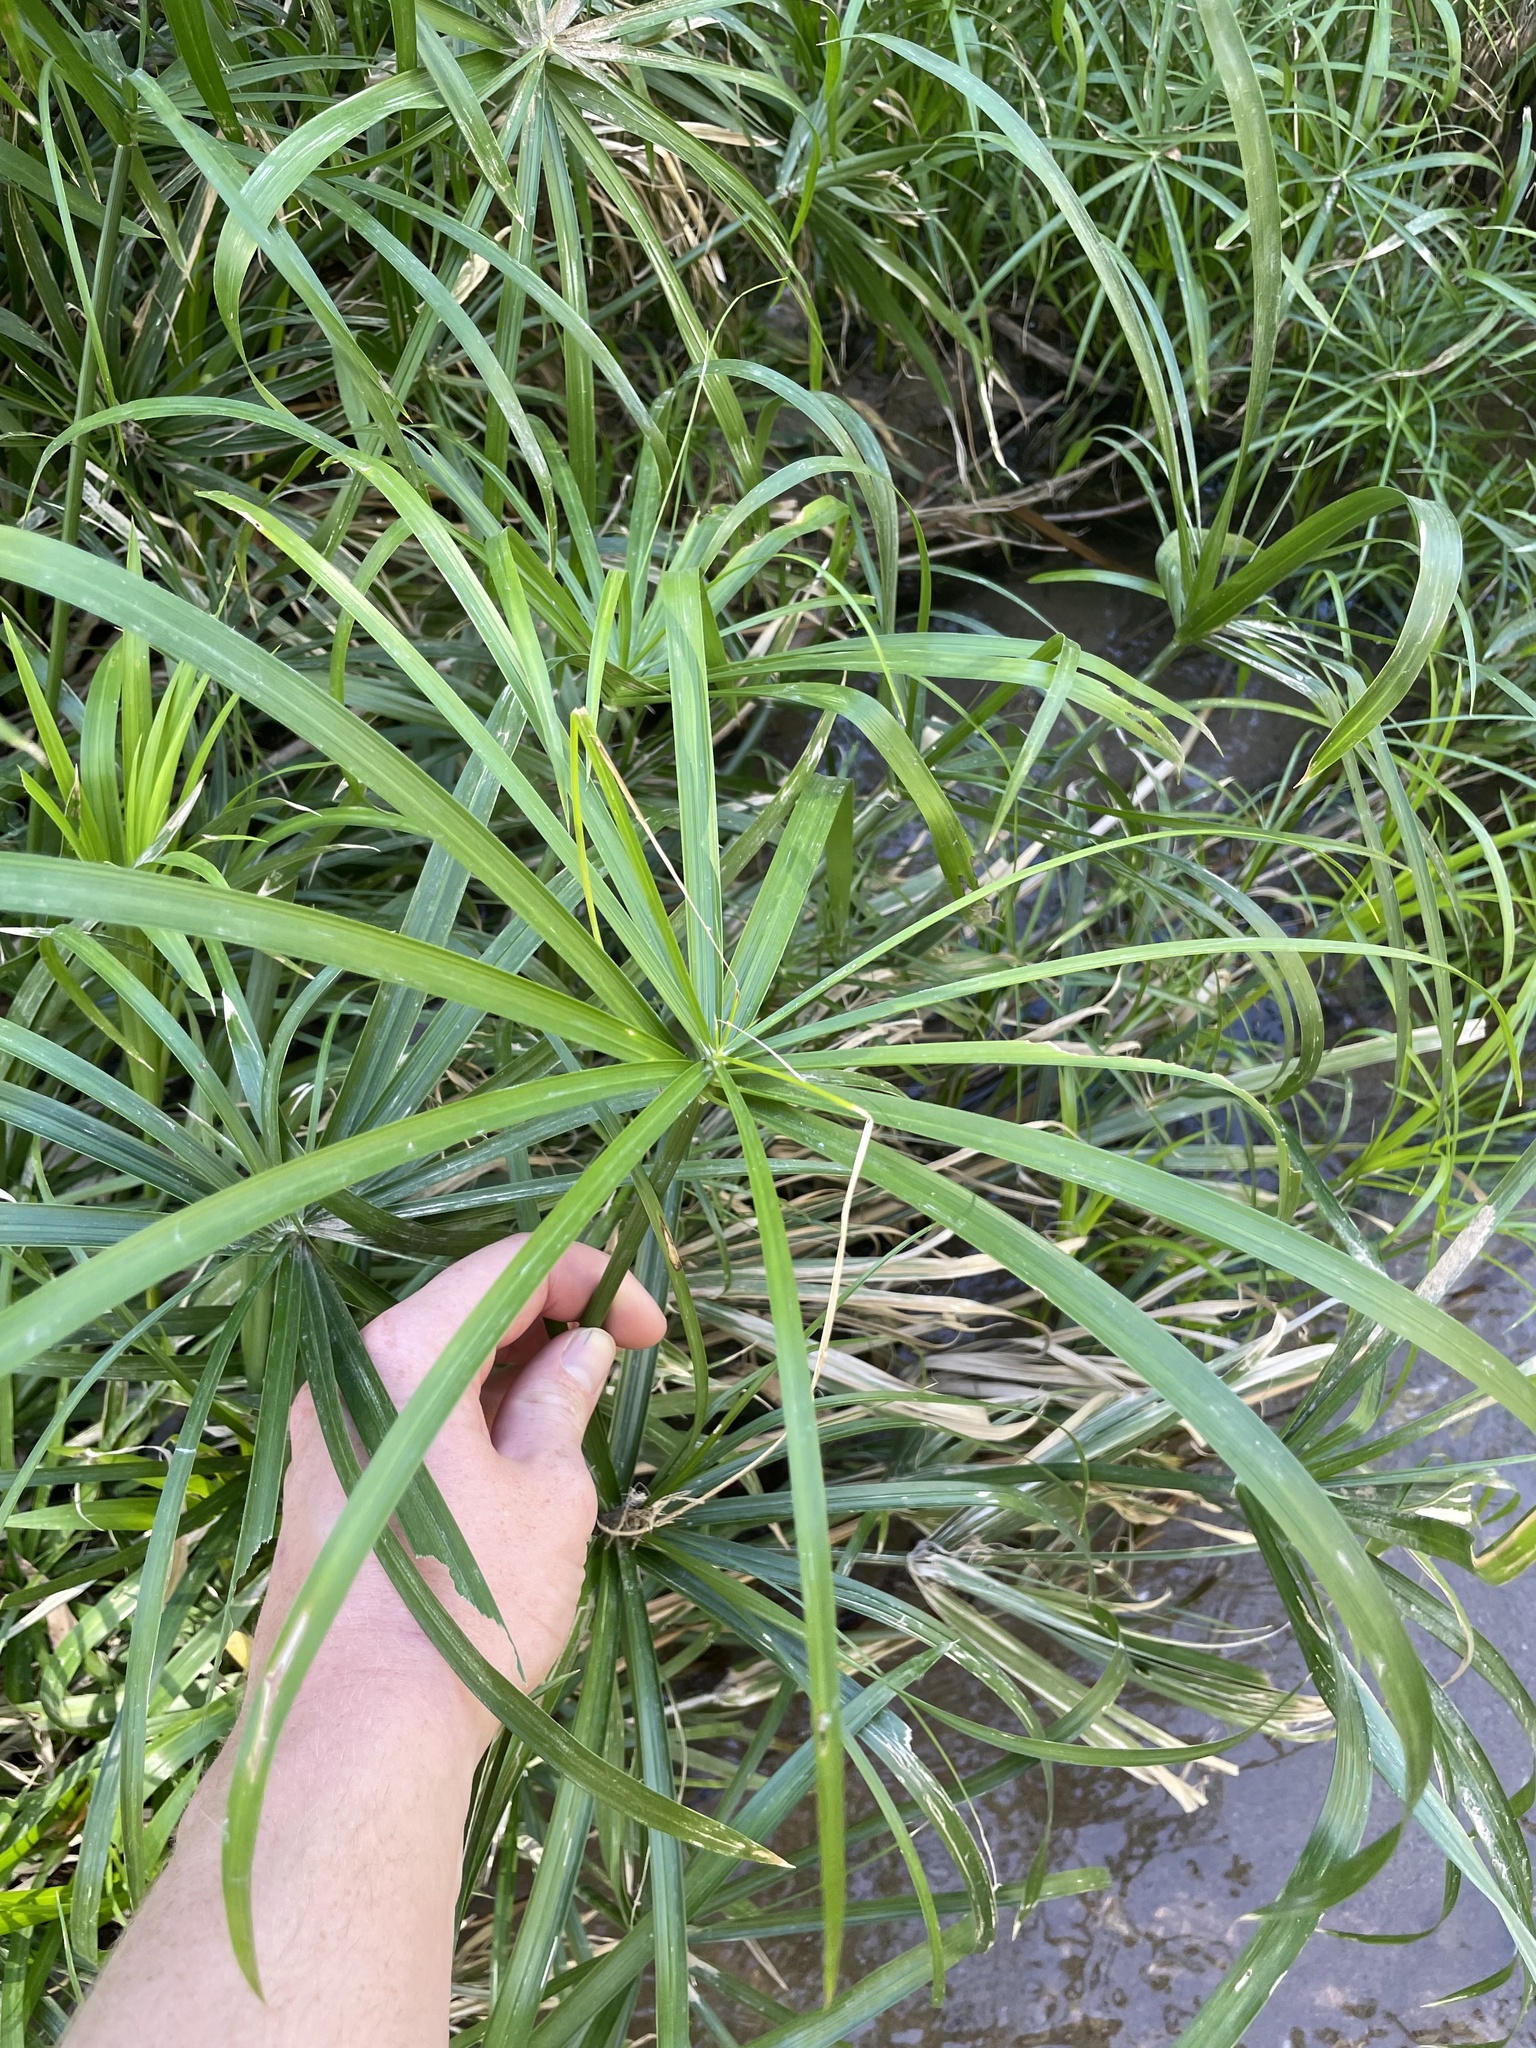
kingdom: Plantae
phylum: Tracheophyta
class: Liliopsida
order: Poales
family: Cyperaceae
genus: Cyperus
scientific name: Cyperus alternifolius
